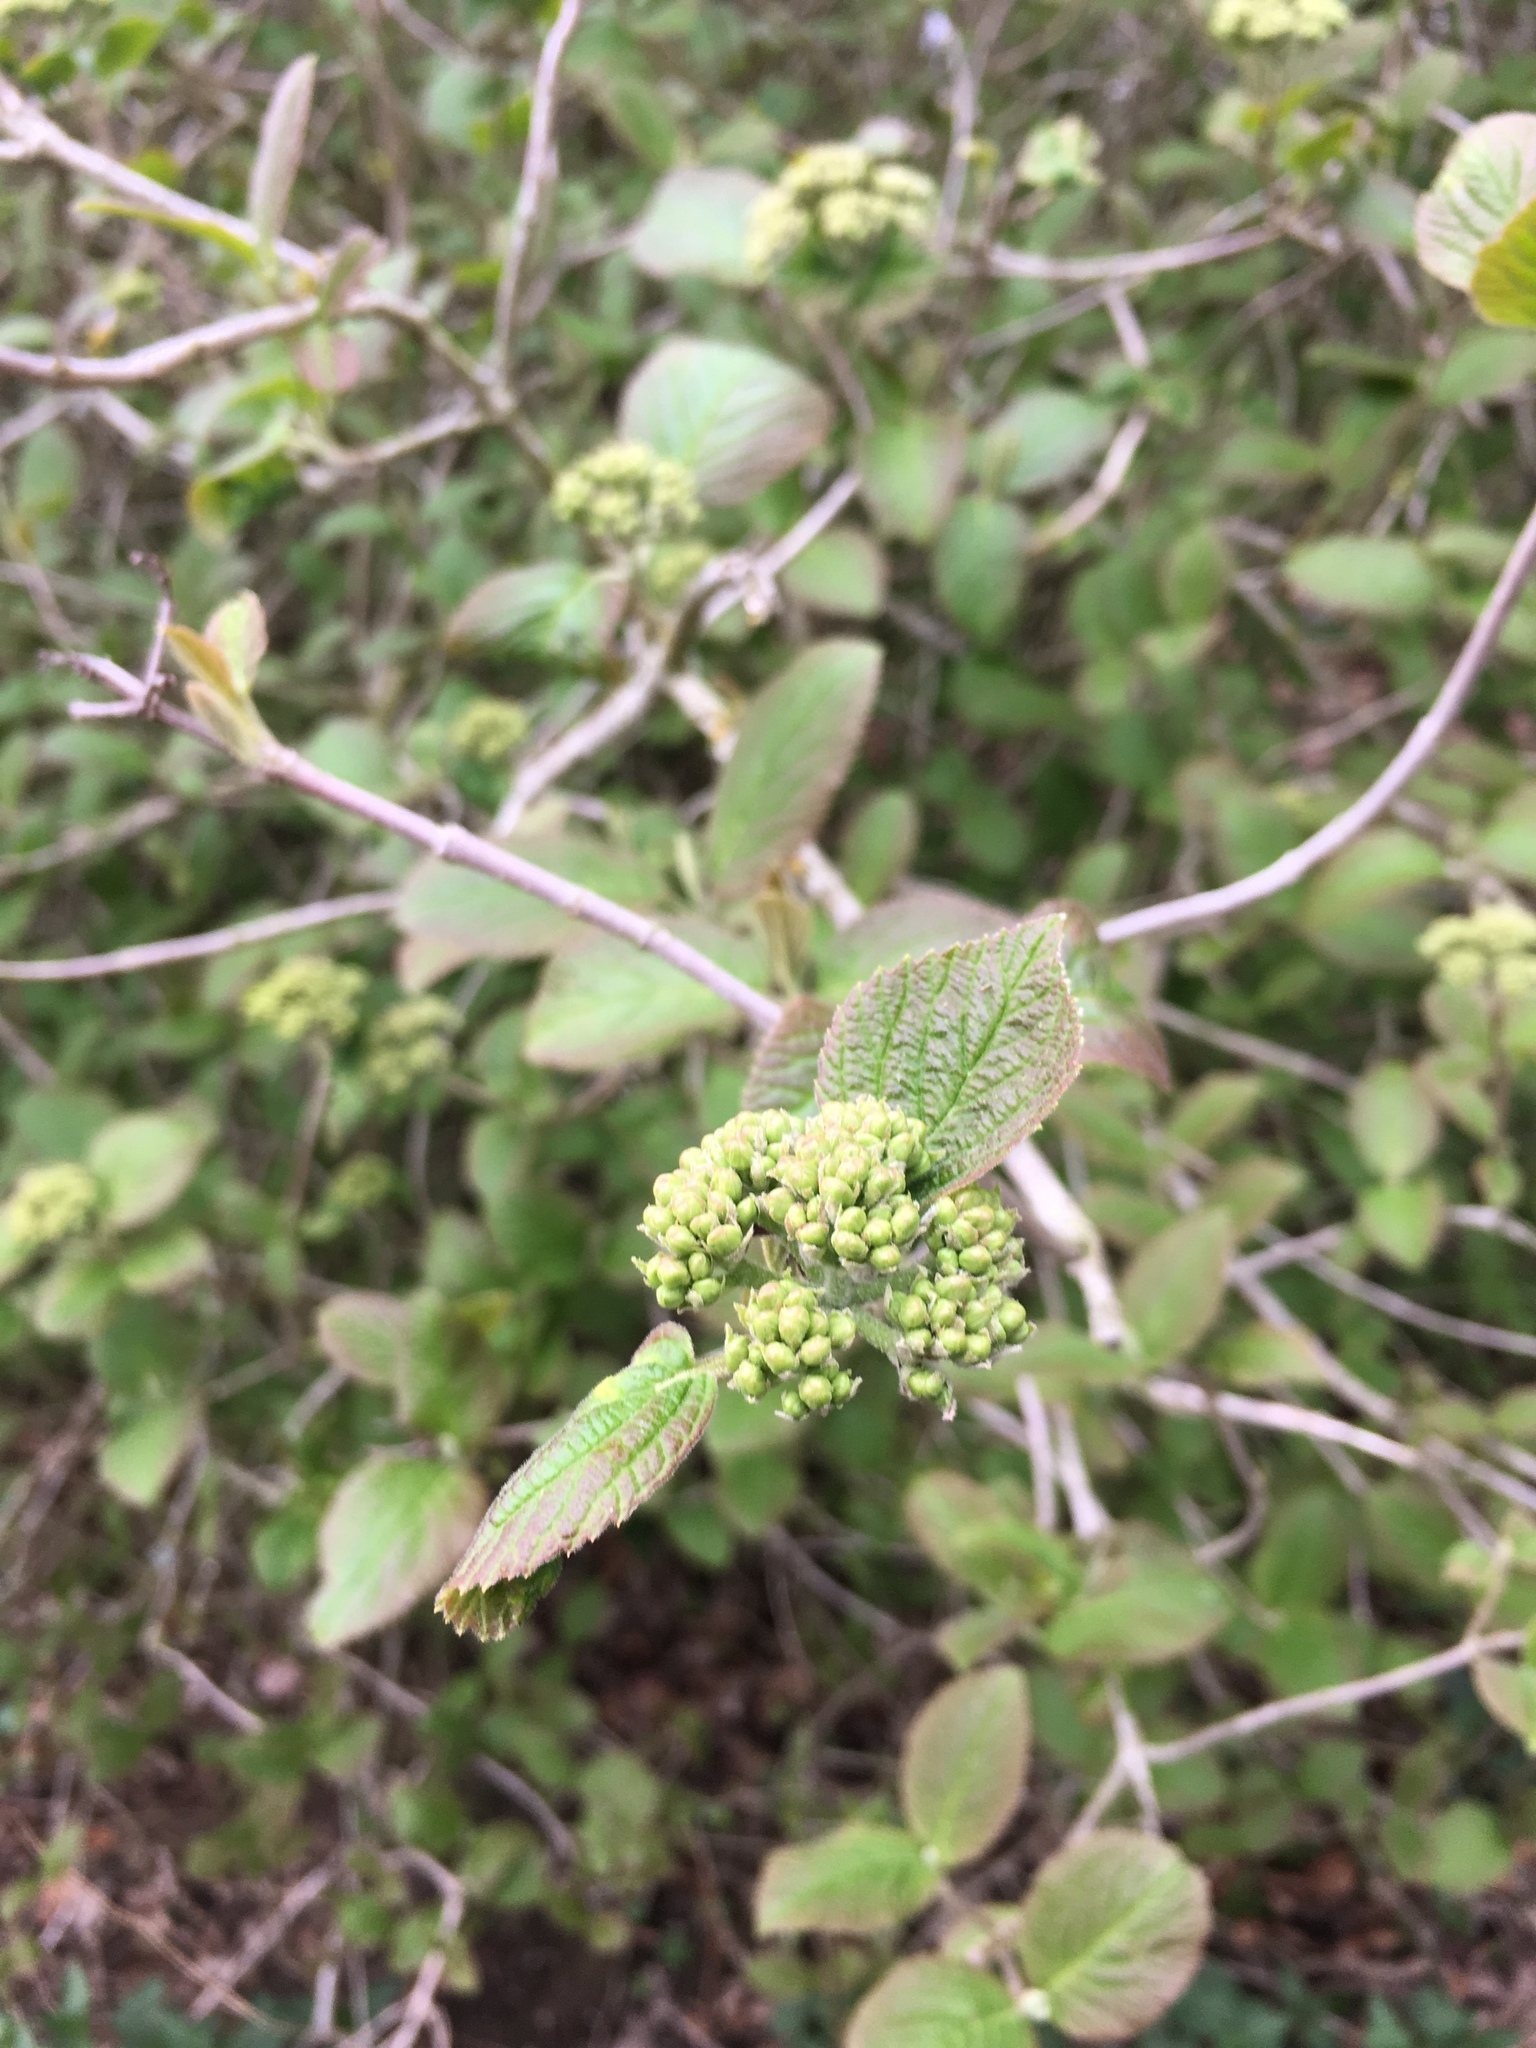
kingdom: Plantae
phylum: Tracheophyta
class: Magnoliopsida
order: Dipsacales
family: Viburnaceae
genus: Viburnum
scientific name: Viburnum lantana
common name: Wayfaring tree
